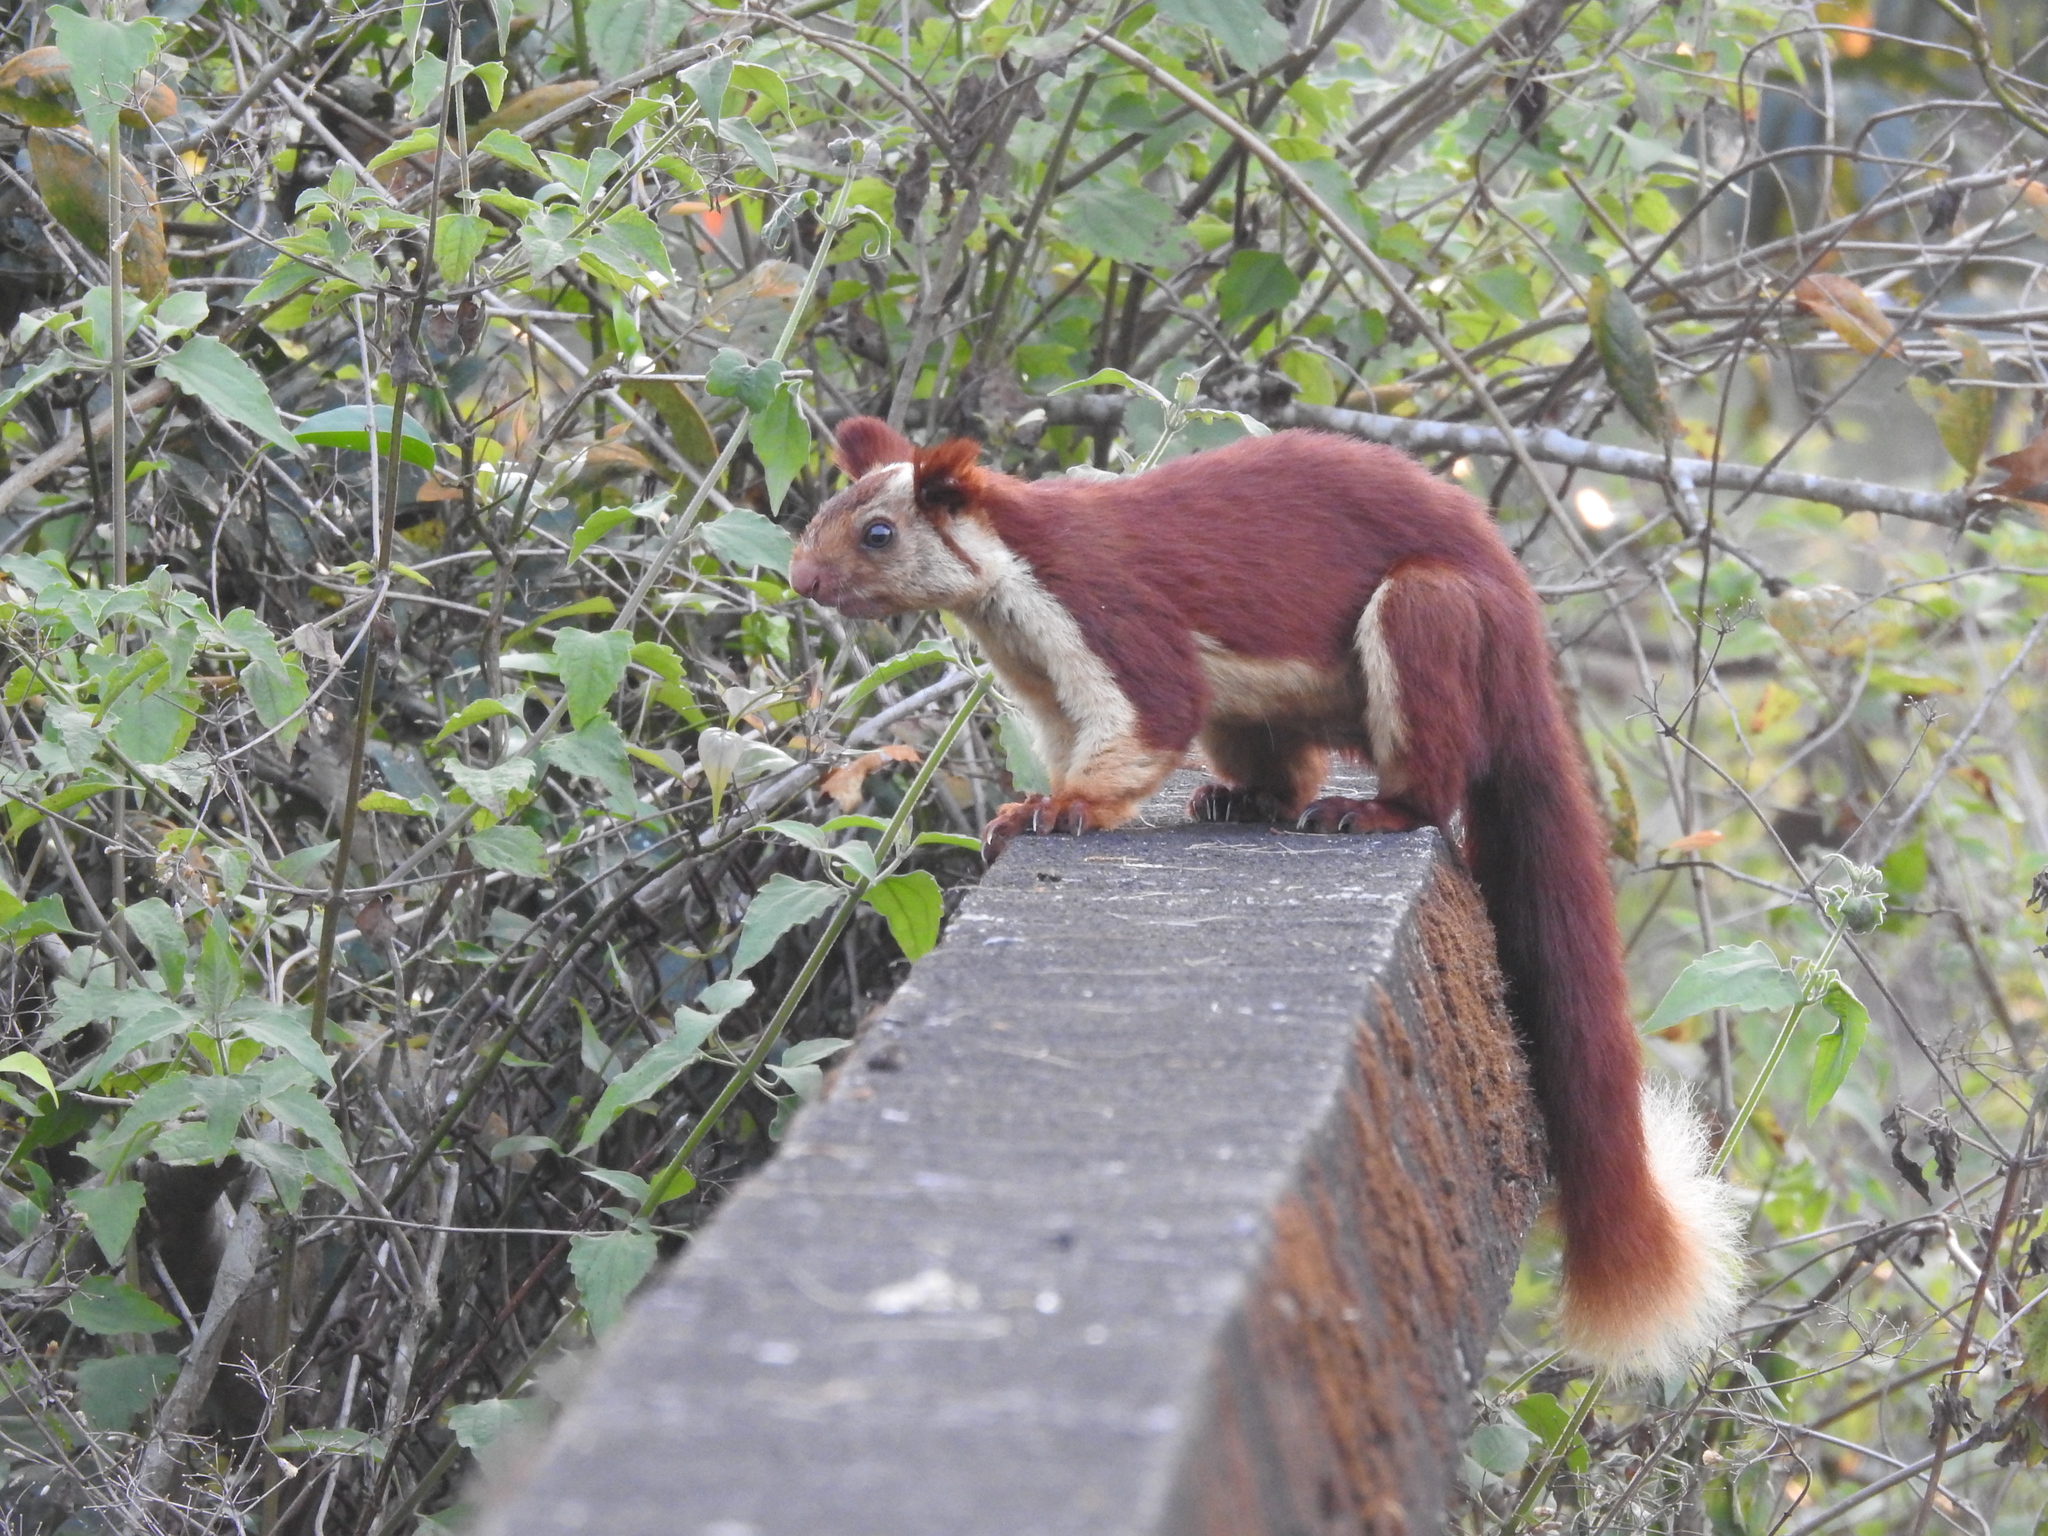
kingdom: Animalia
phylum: Chordata
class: Mammalia
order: Rodentia
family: Sciuridae
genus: Ratufa
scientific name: Ratufa indica
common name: Indian giant squirrel
